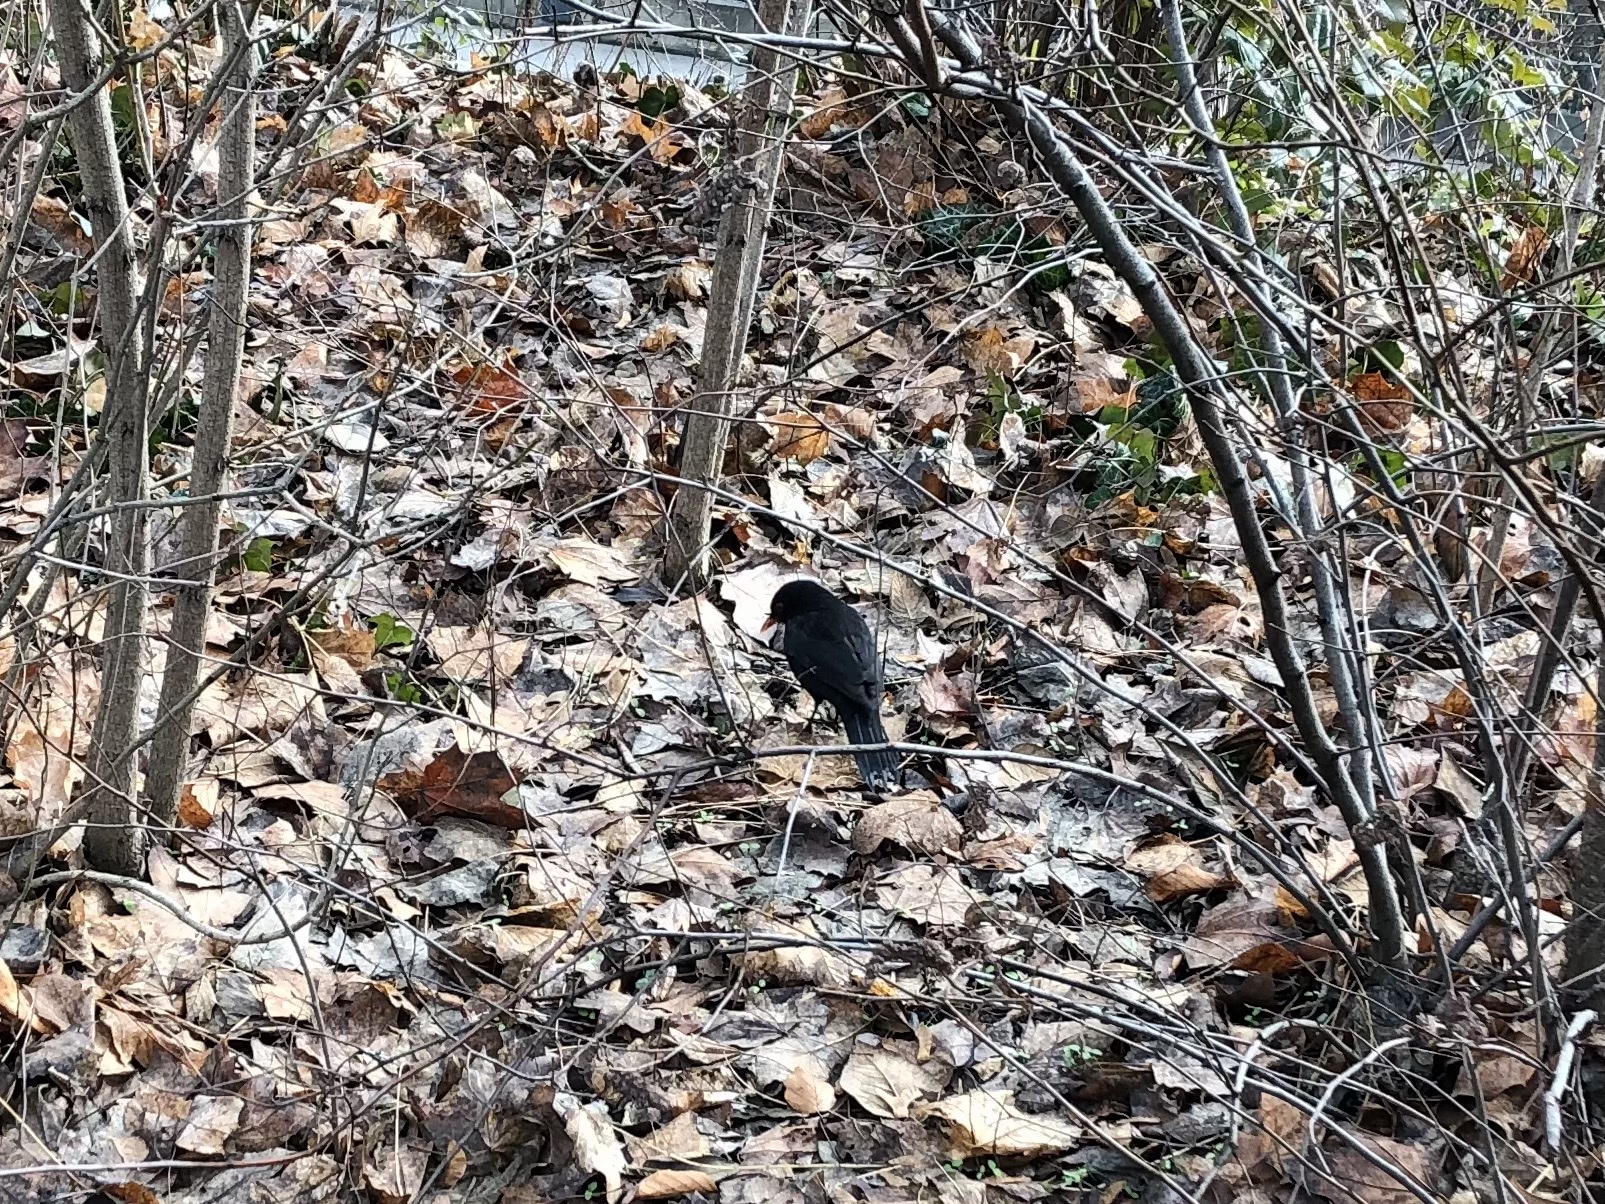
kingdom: Animalia
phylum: Chordata
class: Aves
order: Passeriformes
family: Turdidae
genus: Turdus
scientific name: Turdus merula
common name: Common blackbird
